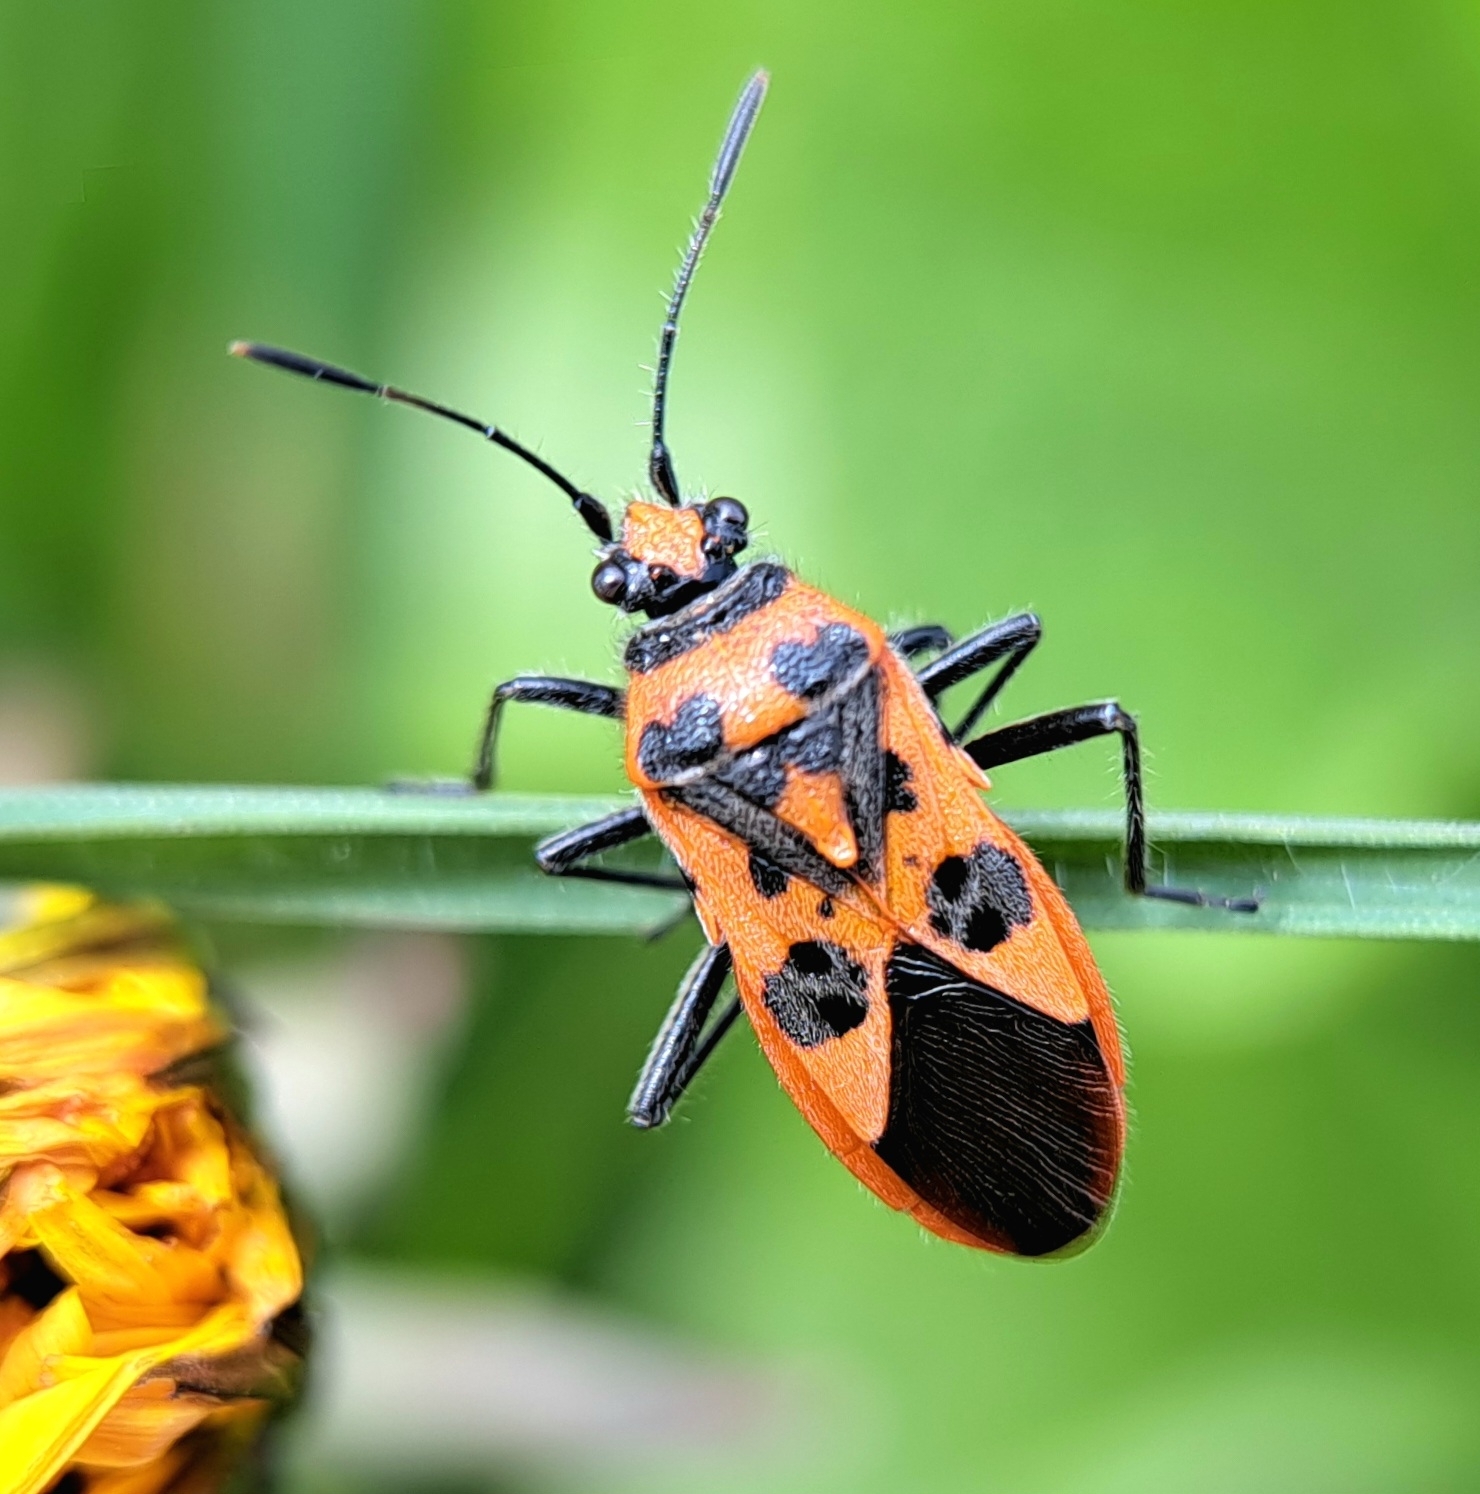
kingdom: Animalia
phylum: Arthropoda
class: Insecta
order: Hemiptera
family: Rhopalidae
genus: Corizus
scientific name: Corizus hyoscyami
